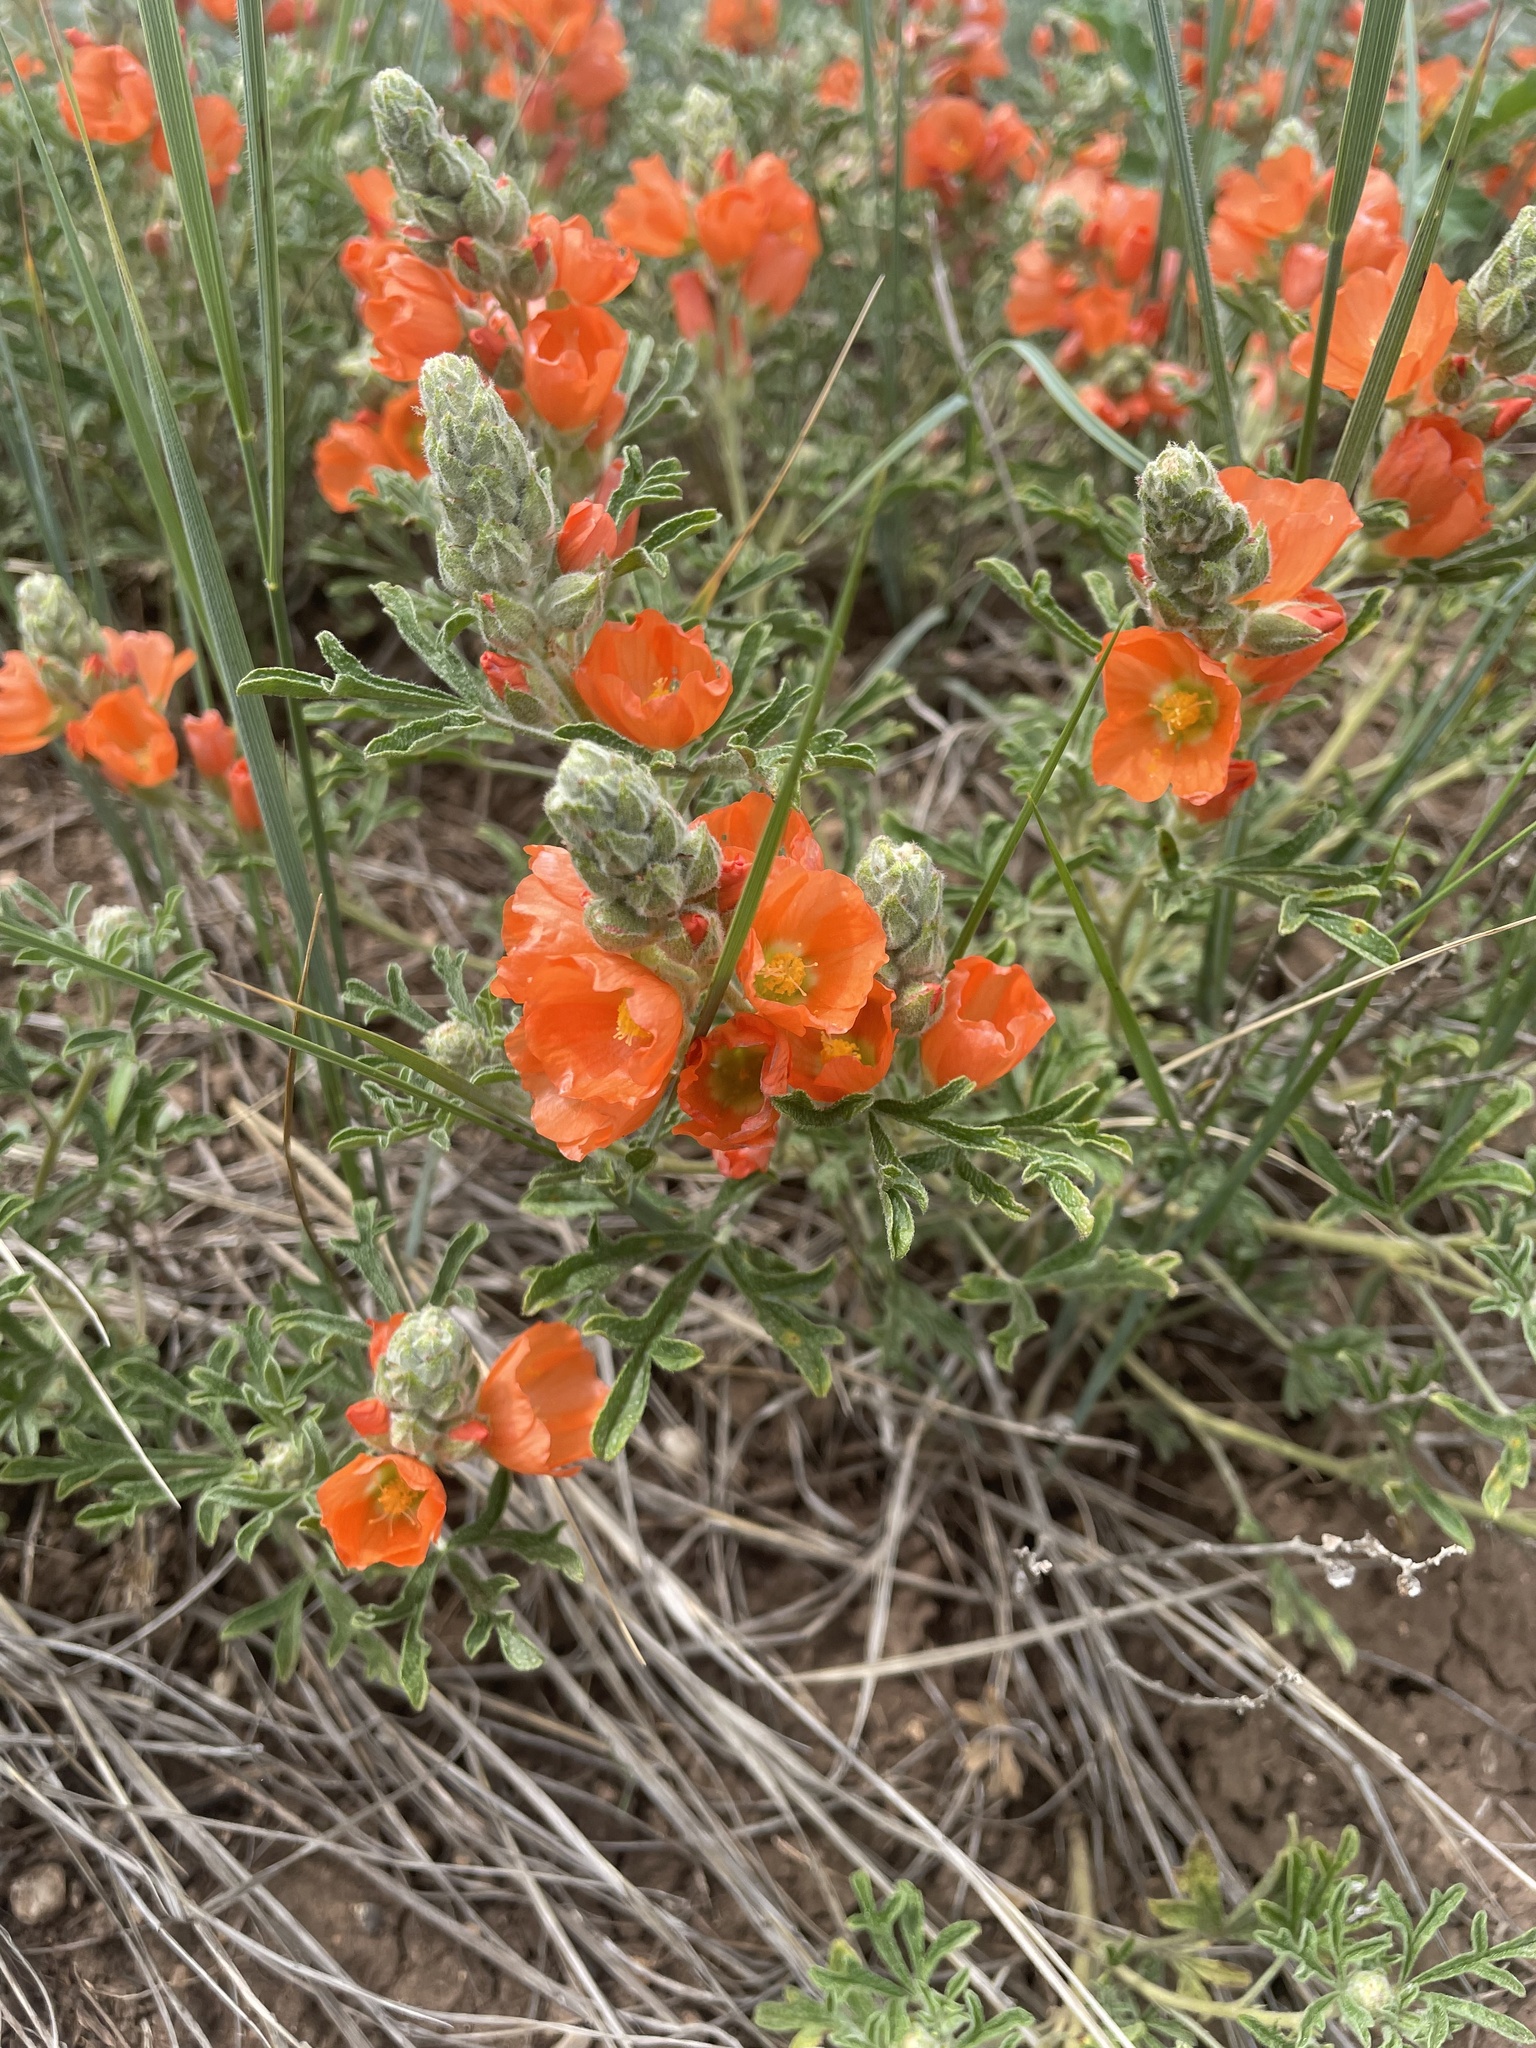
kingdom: Plantae
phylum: Tracheophyta
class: Magnoliopsida
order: Malvales
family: Malvaceae
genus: Sphaeralcea
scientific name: Sphaeralcea coccinea
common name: Moss-rose
